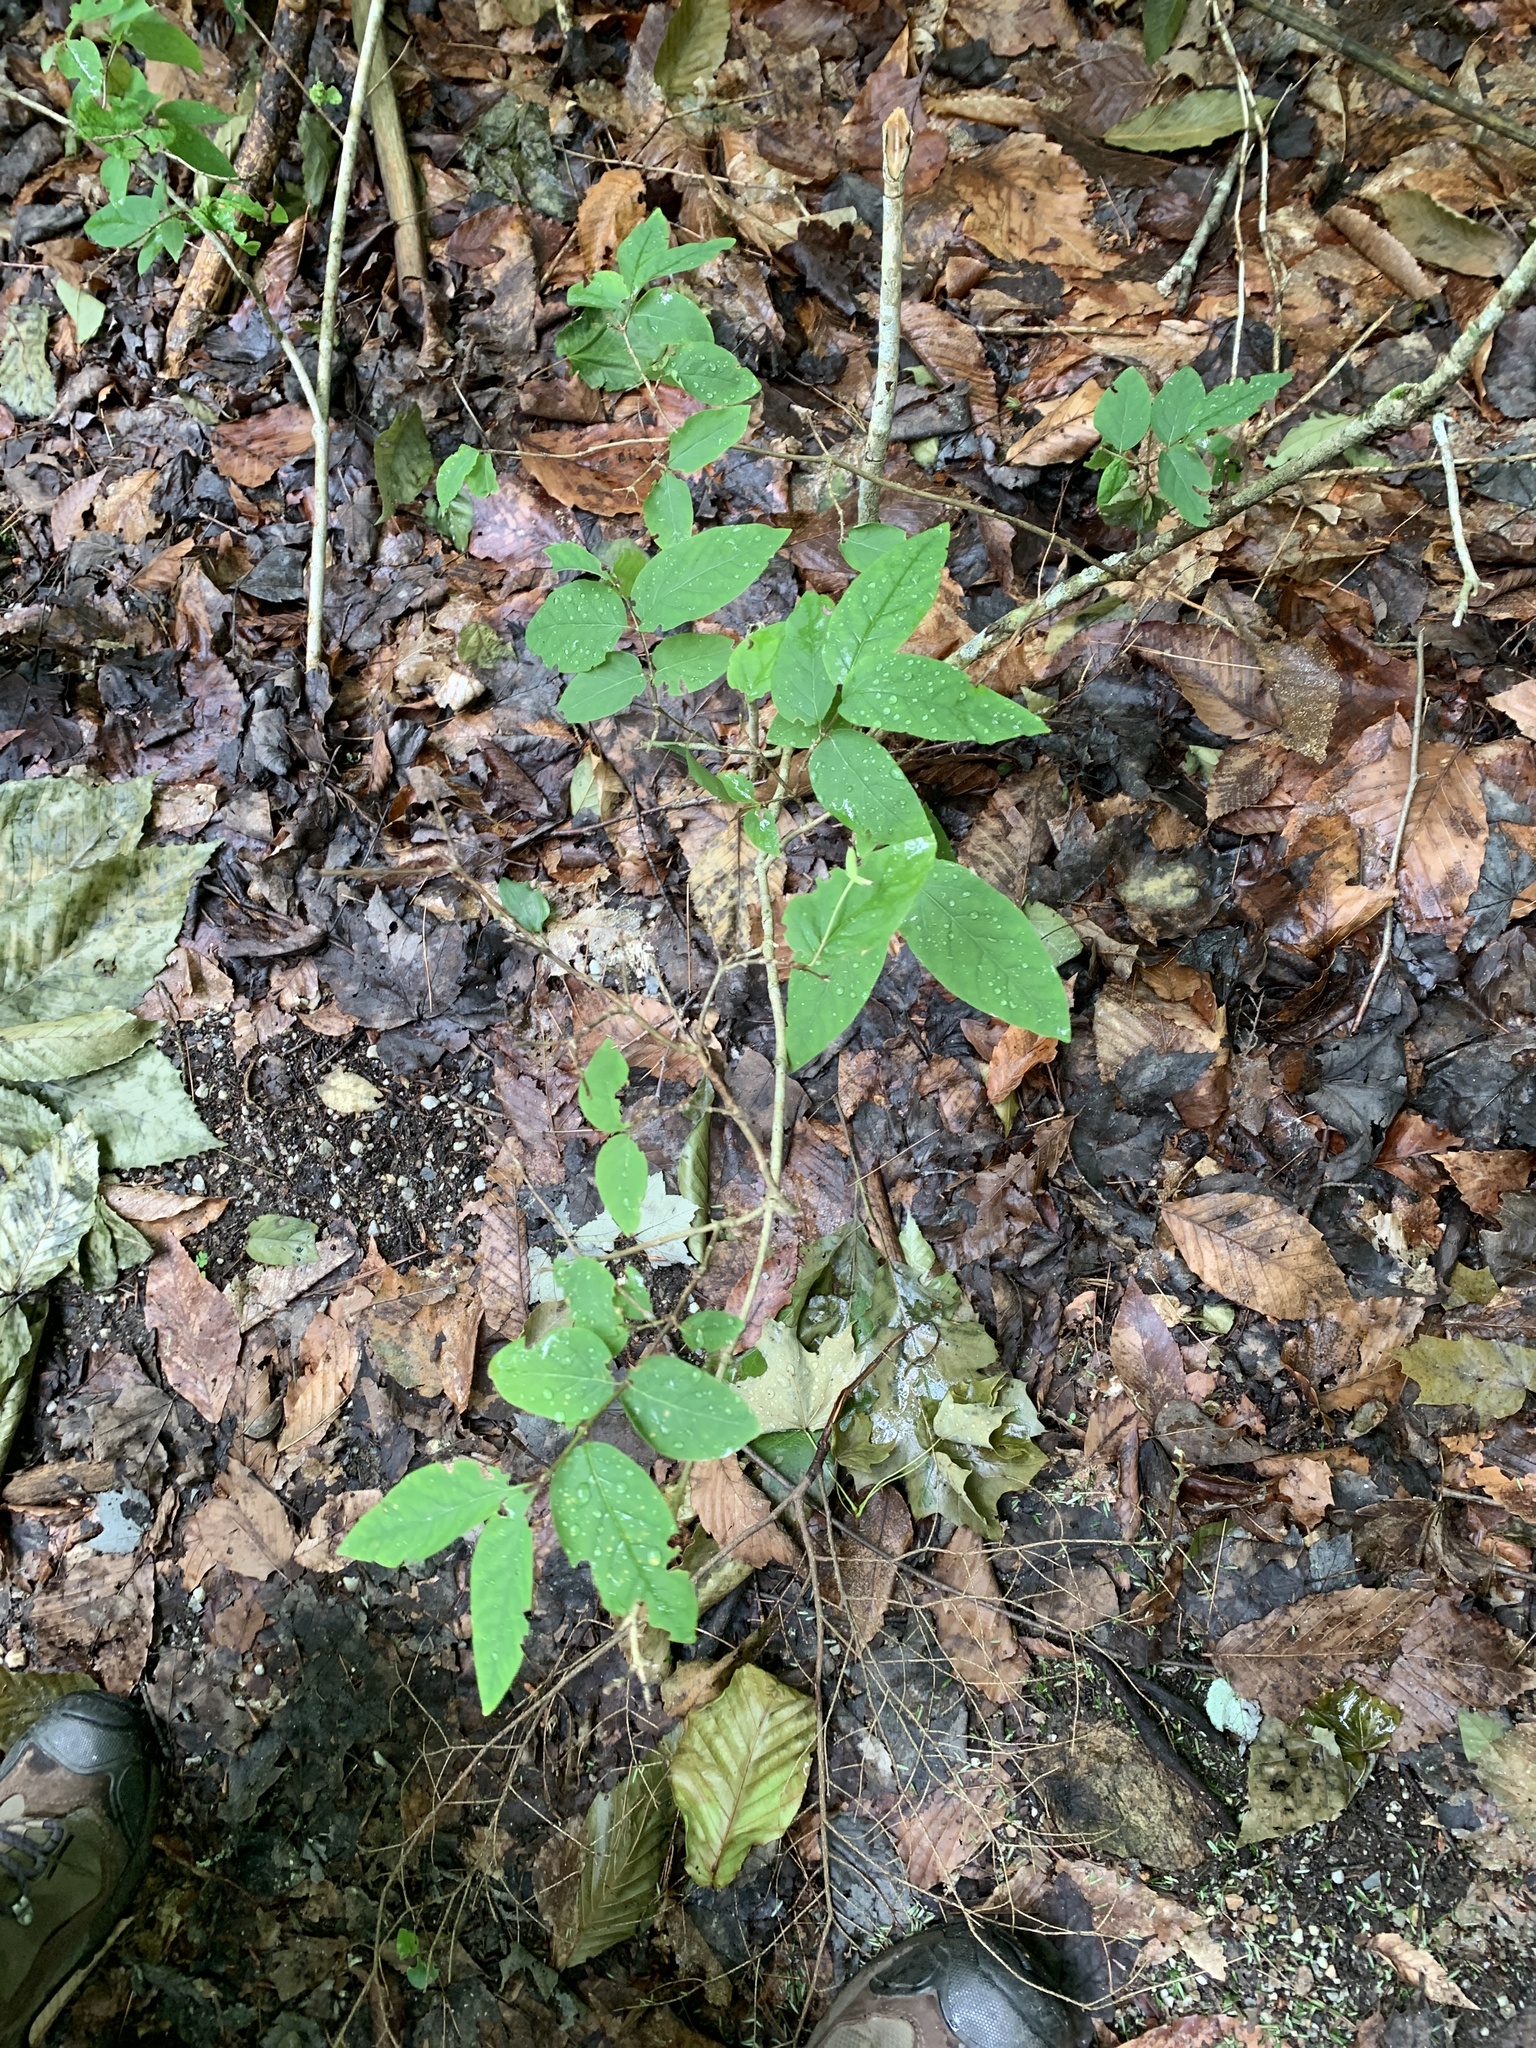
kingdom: Plantae
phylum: Tracheophyta
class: Magnoliopsida
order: Dipsacales
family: Caprifoliaceae
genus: Lonicera
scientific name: Lonicera canadensis
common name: American fly-honeysuckle
